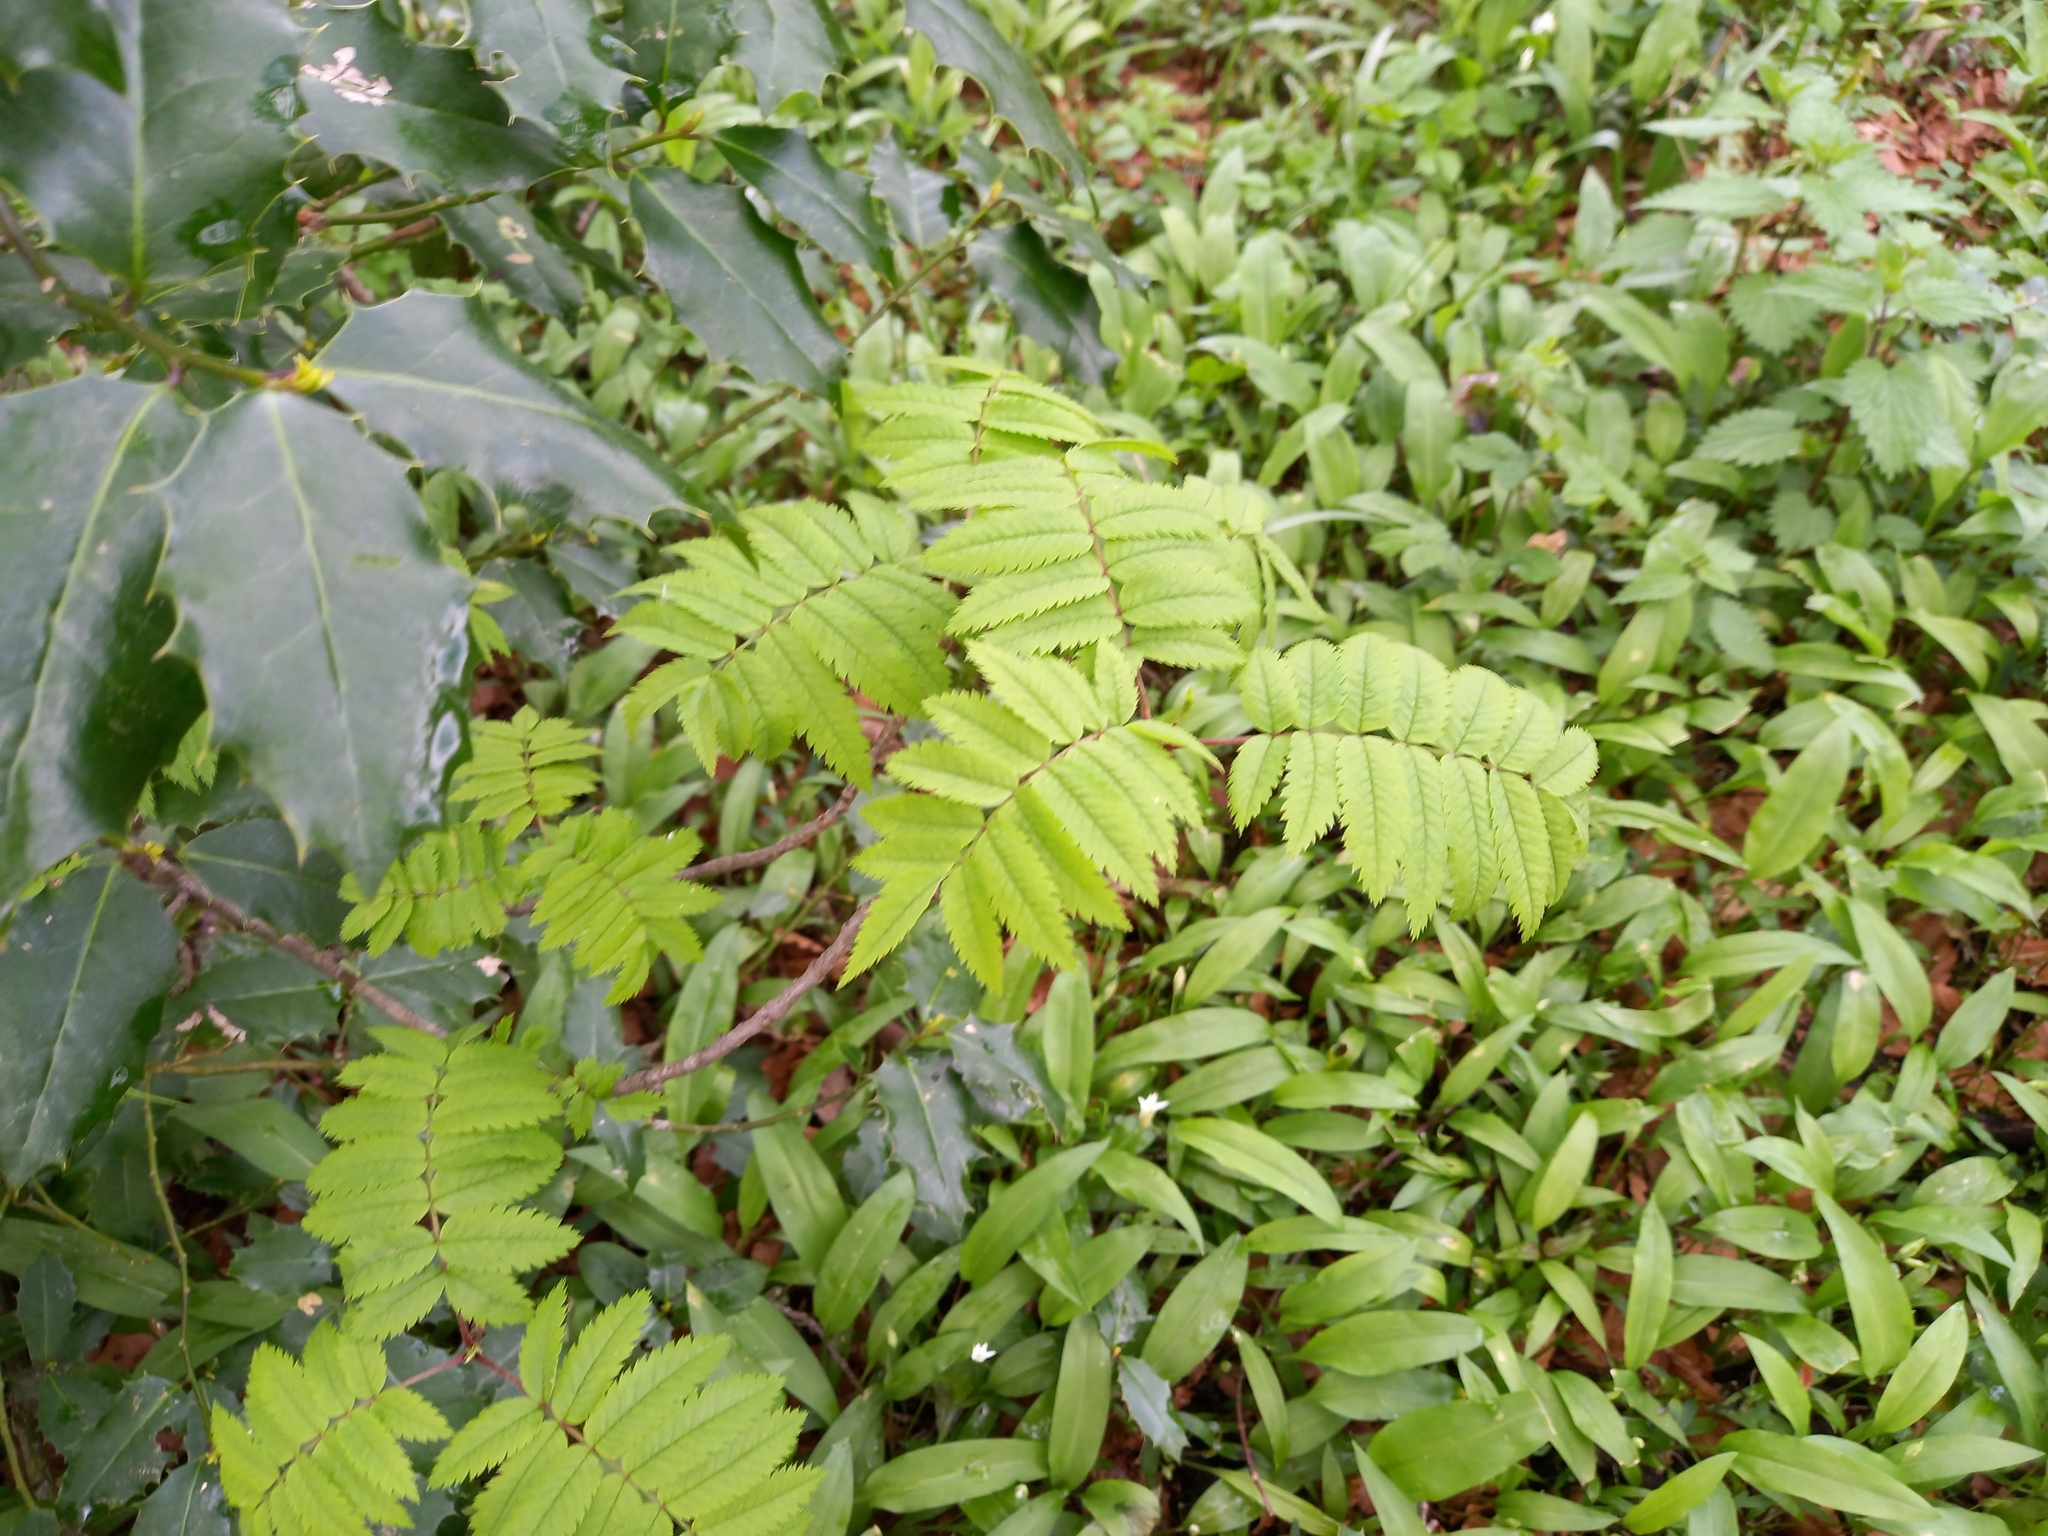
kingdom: Plantae
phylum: Tracheophyta
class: Magnoliopsida
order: Rosales
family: Rosaceae
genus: Sorbus
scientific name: Sorbus aucuparia
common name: Rowan
